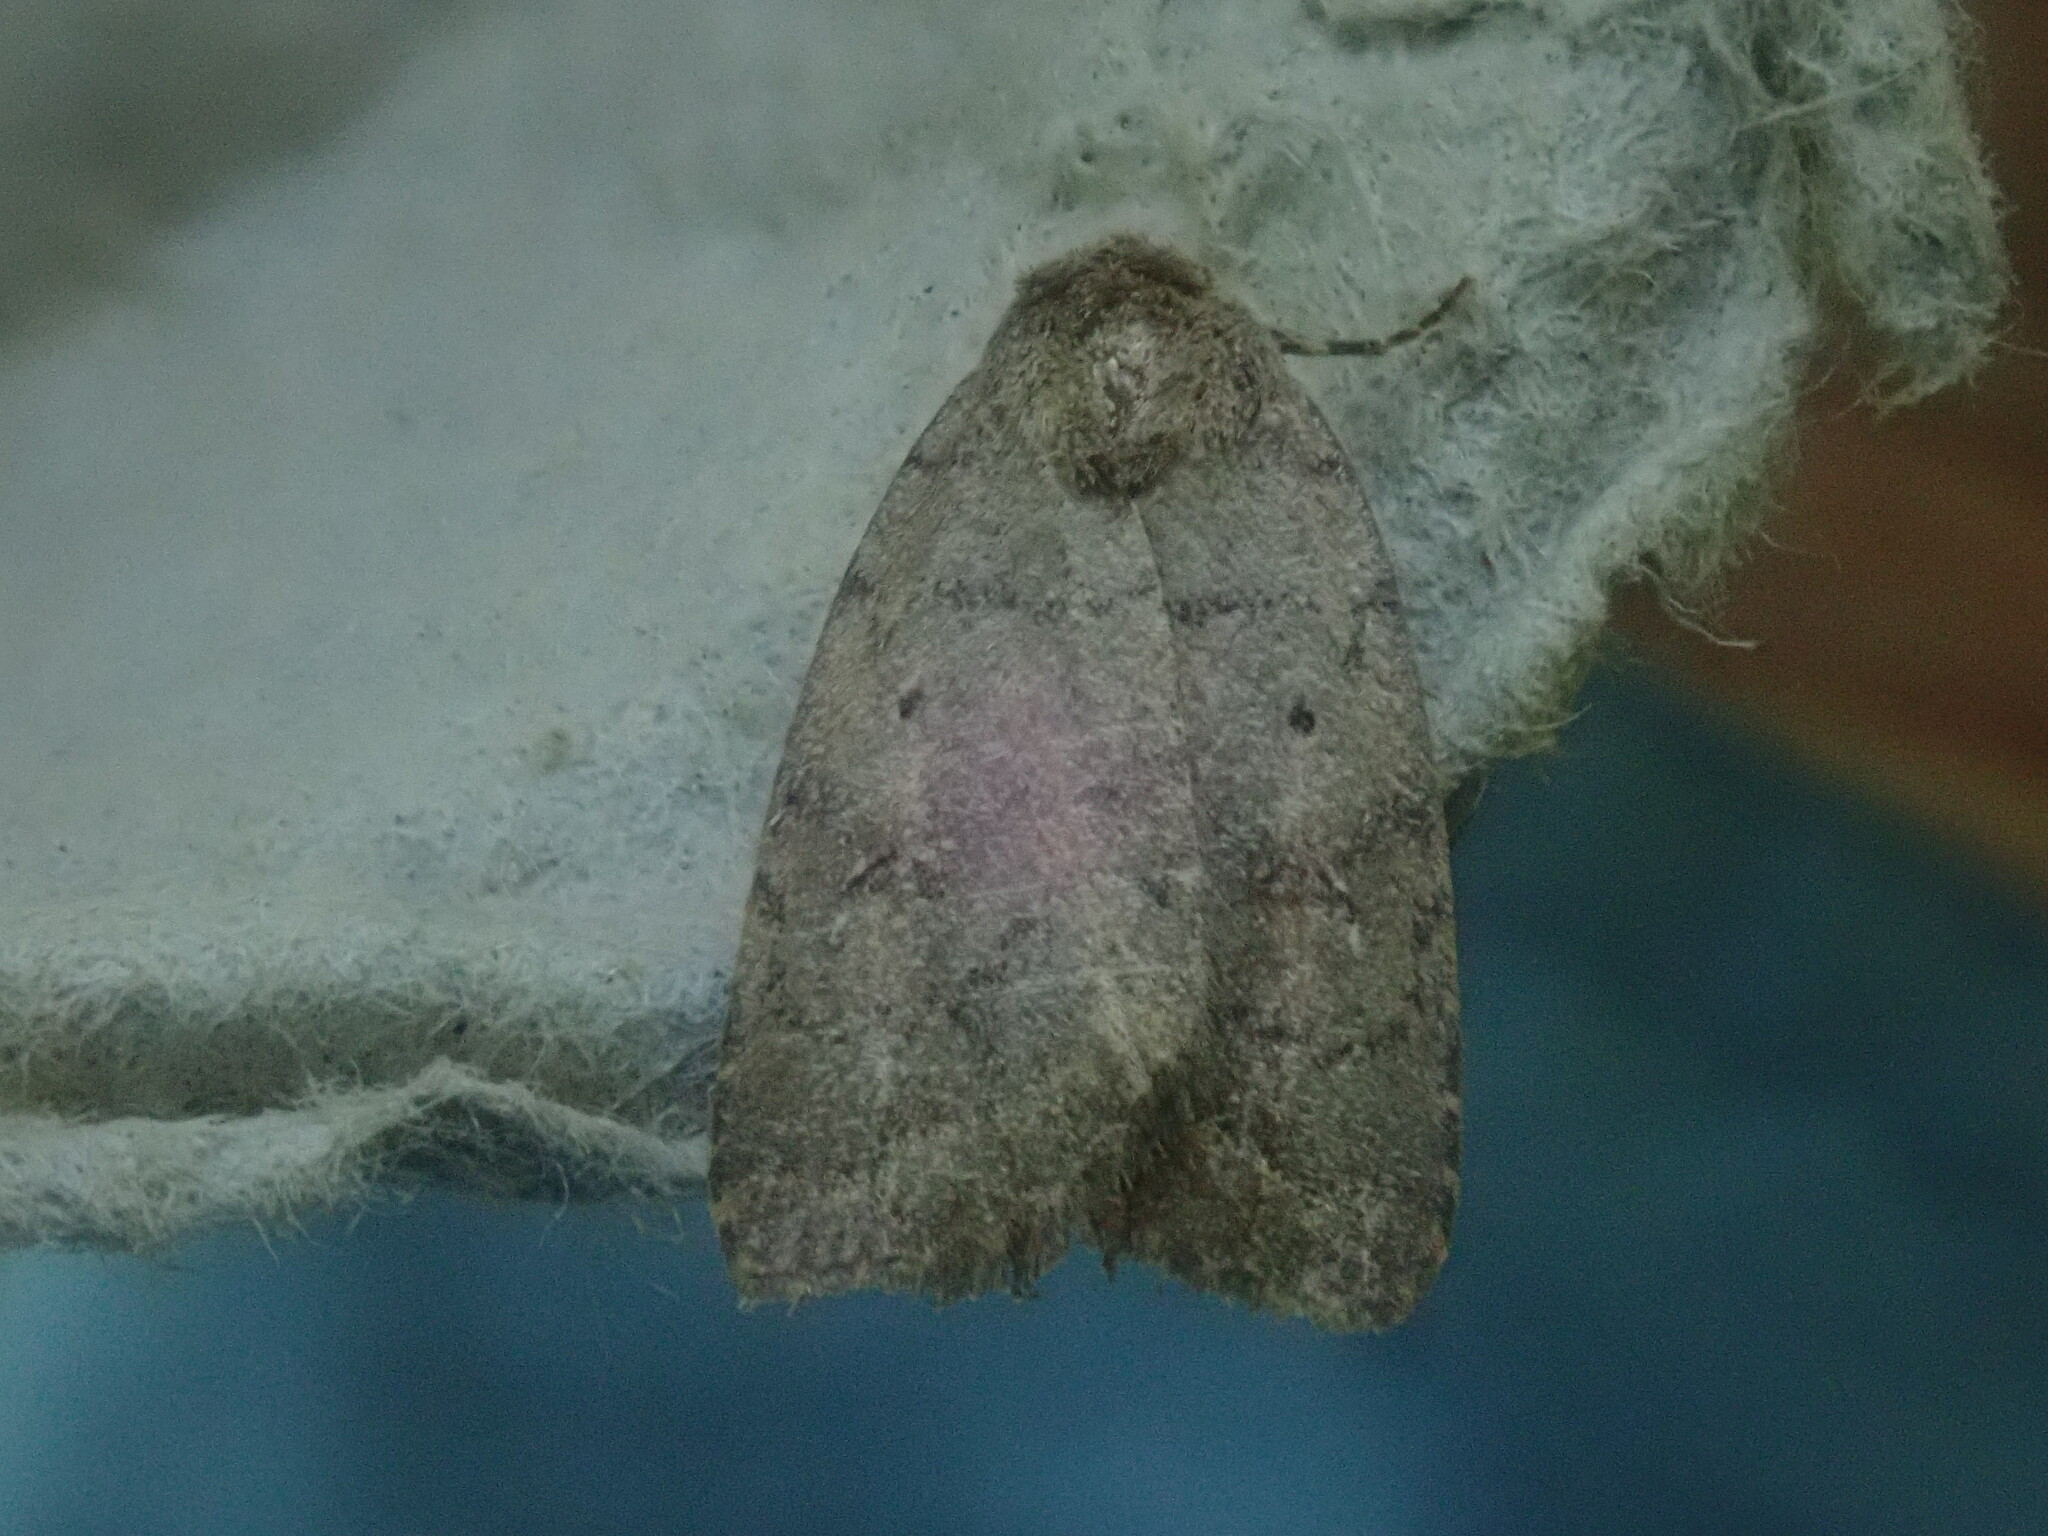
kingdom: Animalia
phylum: Arthropoda
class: Insecta
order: Lepidoptera
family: Noctuidae
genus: Athetis
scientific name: Athetis tarda
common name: Slowpoke moth
